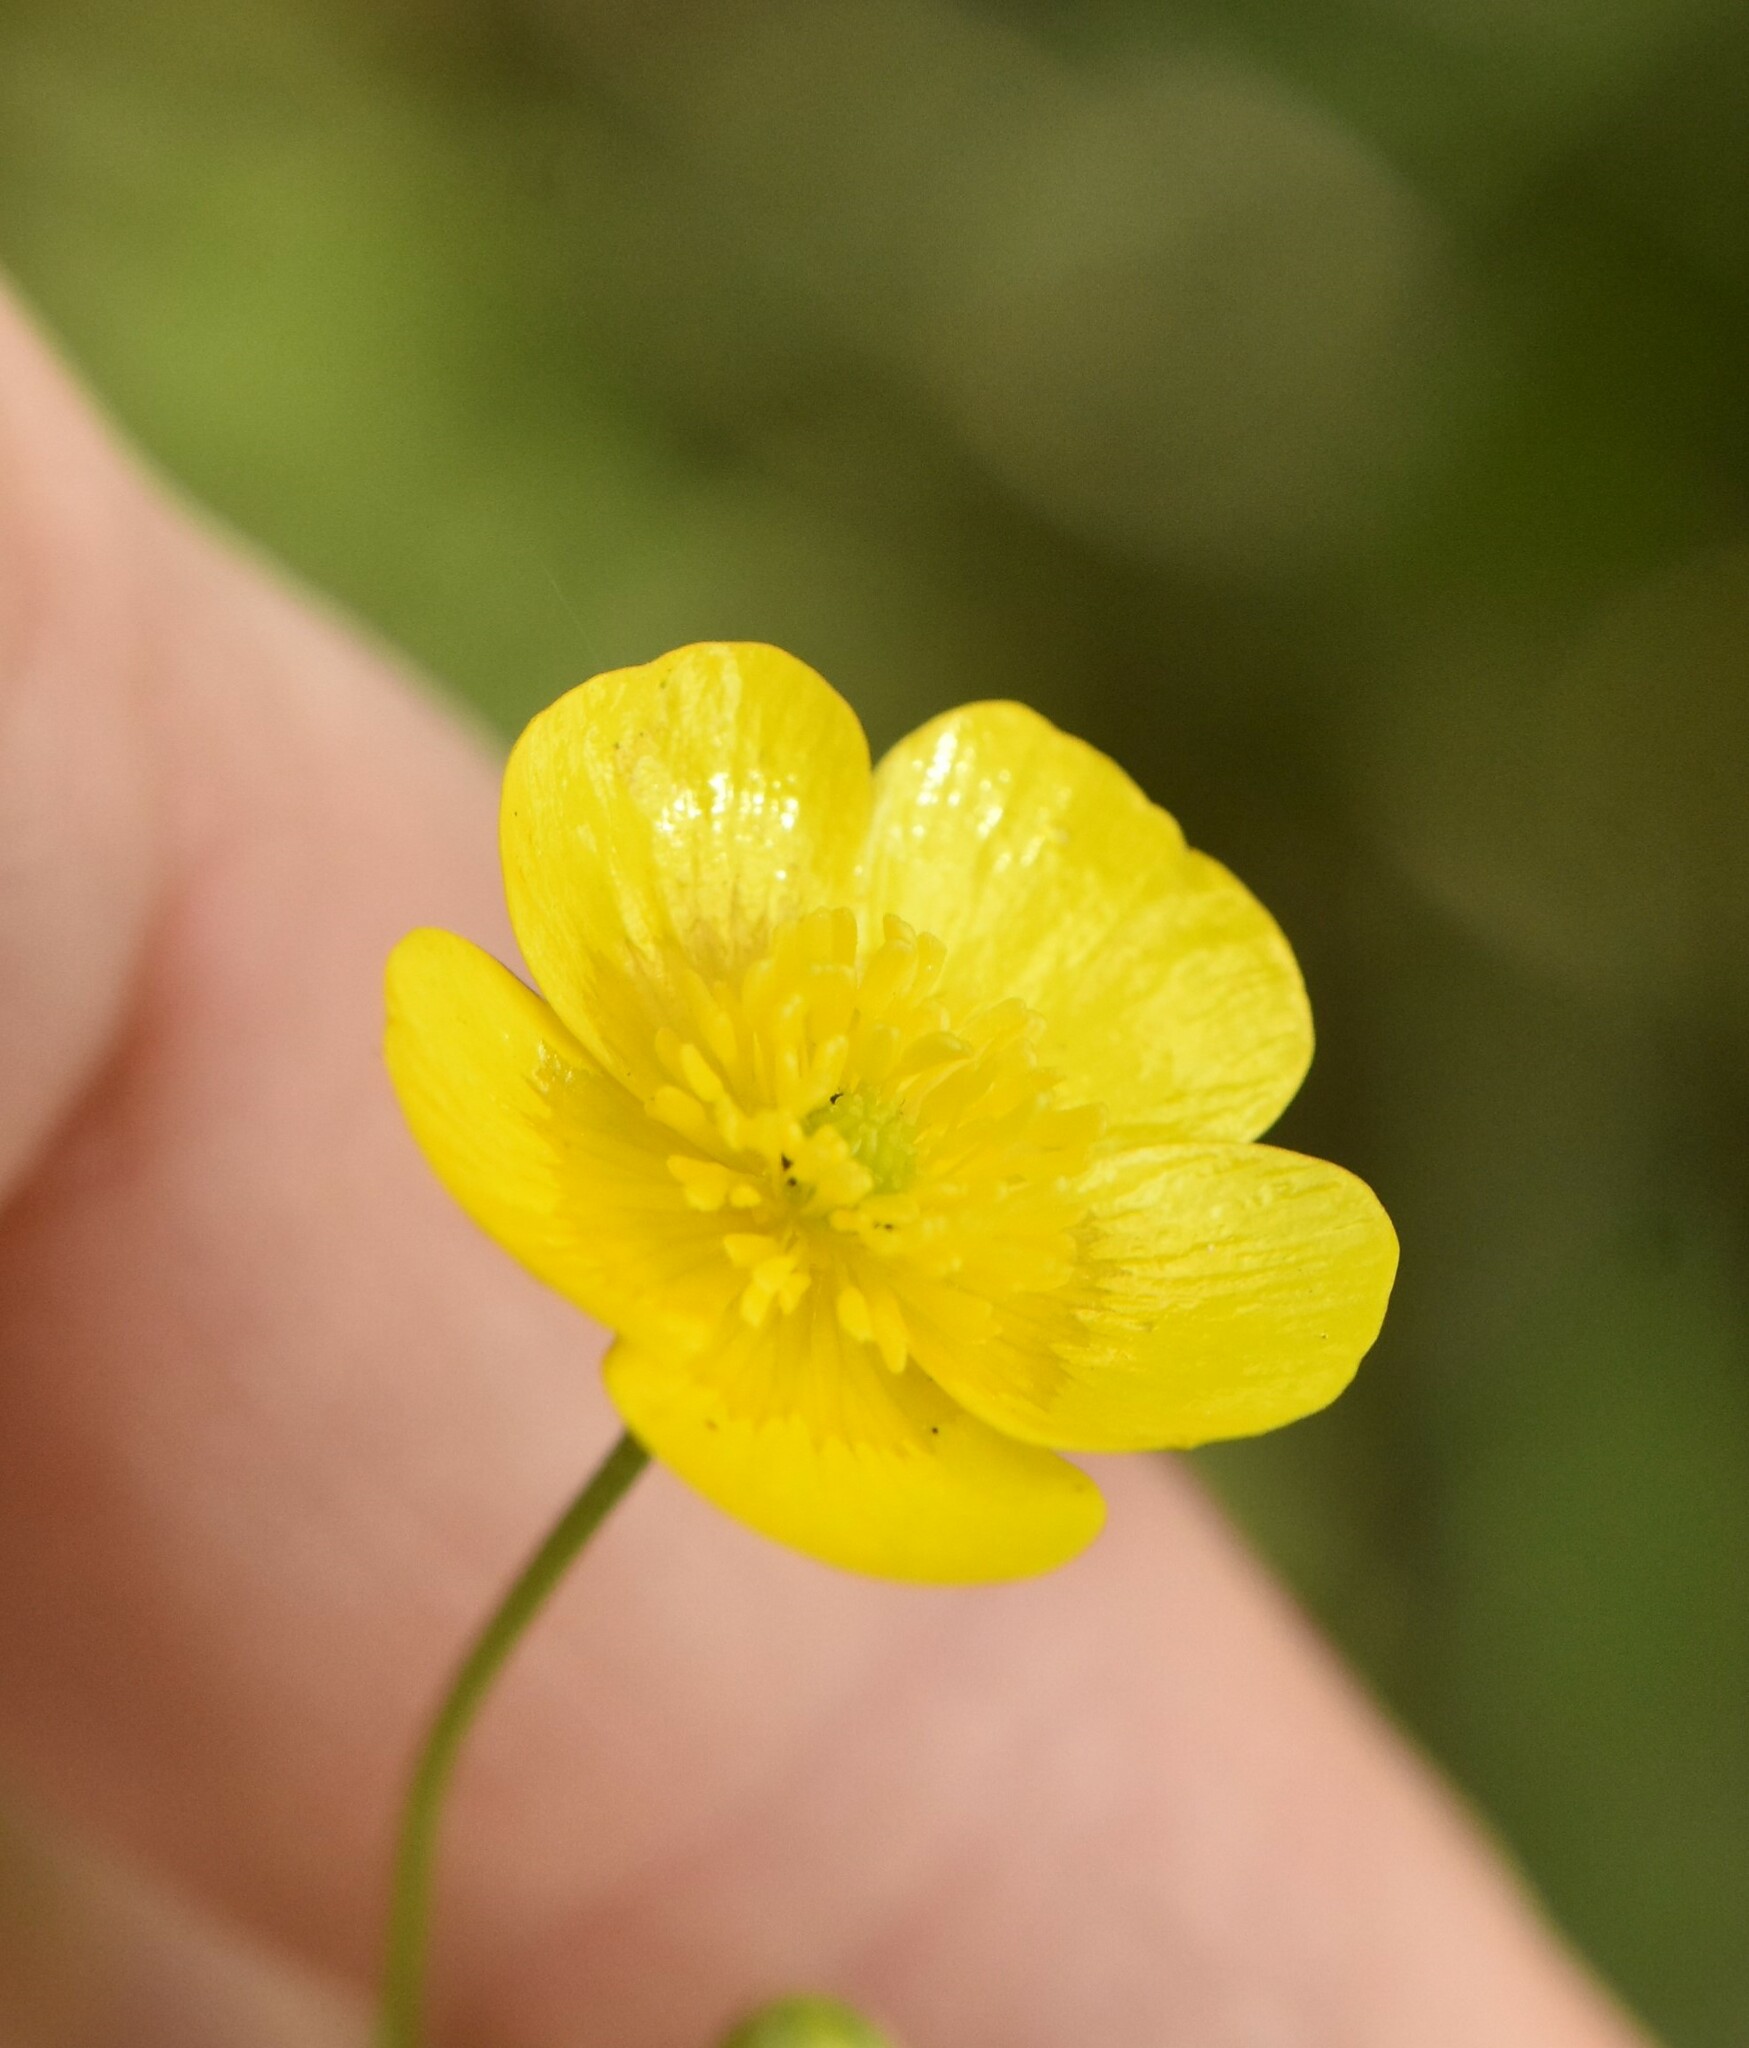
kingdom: Plantae
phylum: Tracheophyta
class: Magnoliopsida
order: Ranunculales
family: Ranunculaceae
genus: Ranunculus
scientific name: Ranunculus acris
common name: Meadow buttercup
